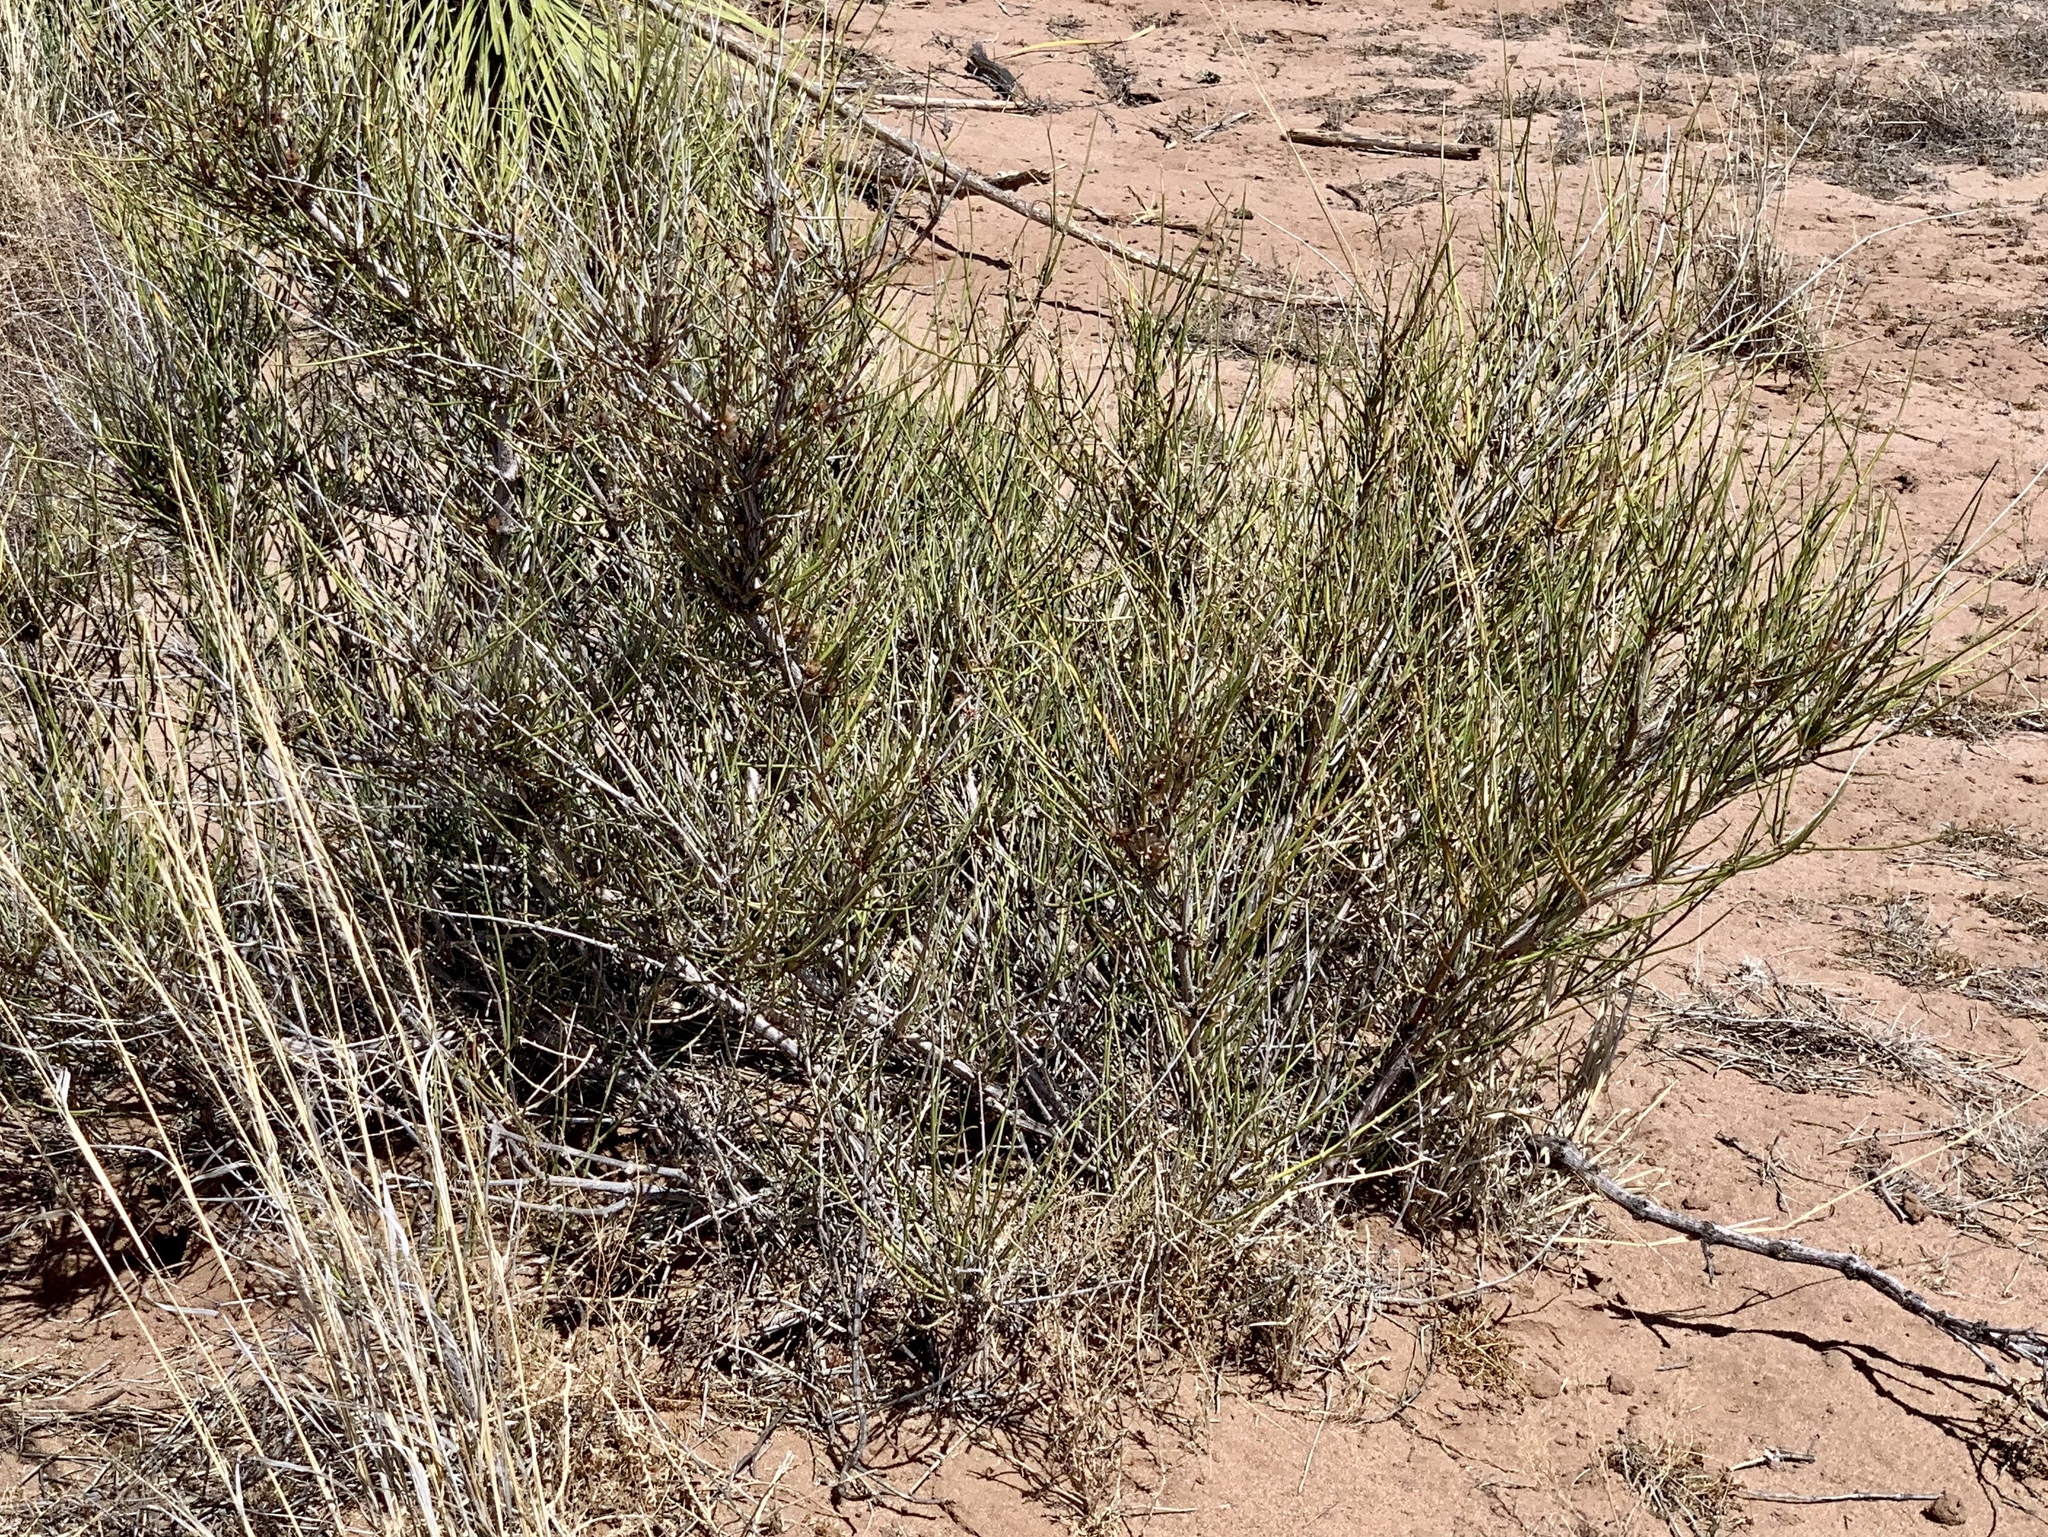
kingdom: Plantae
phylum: Tracheophyta
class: Gnetopsida
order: Ephedrales
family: Ephedraceae
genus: Ephedra
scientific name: Ephedra trifurca
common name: Mexican-tea
